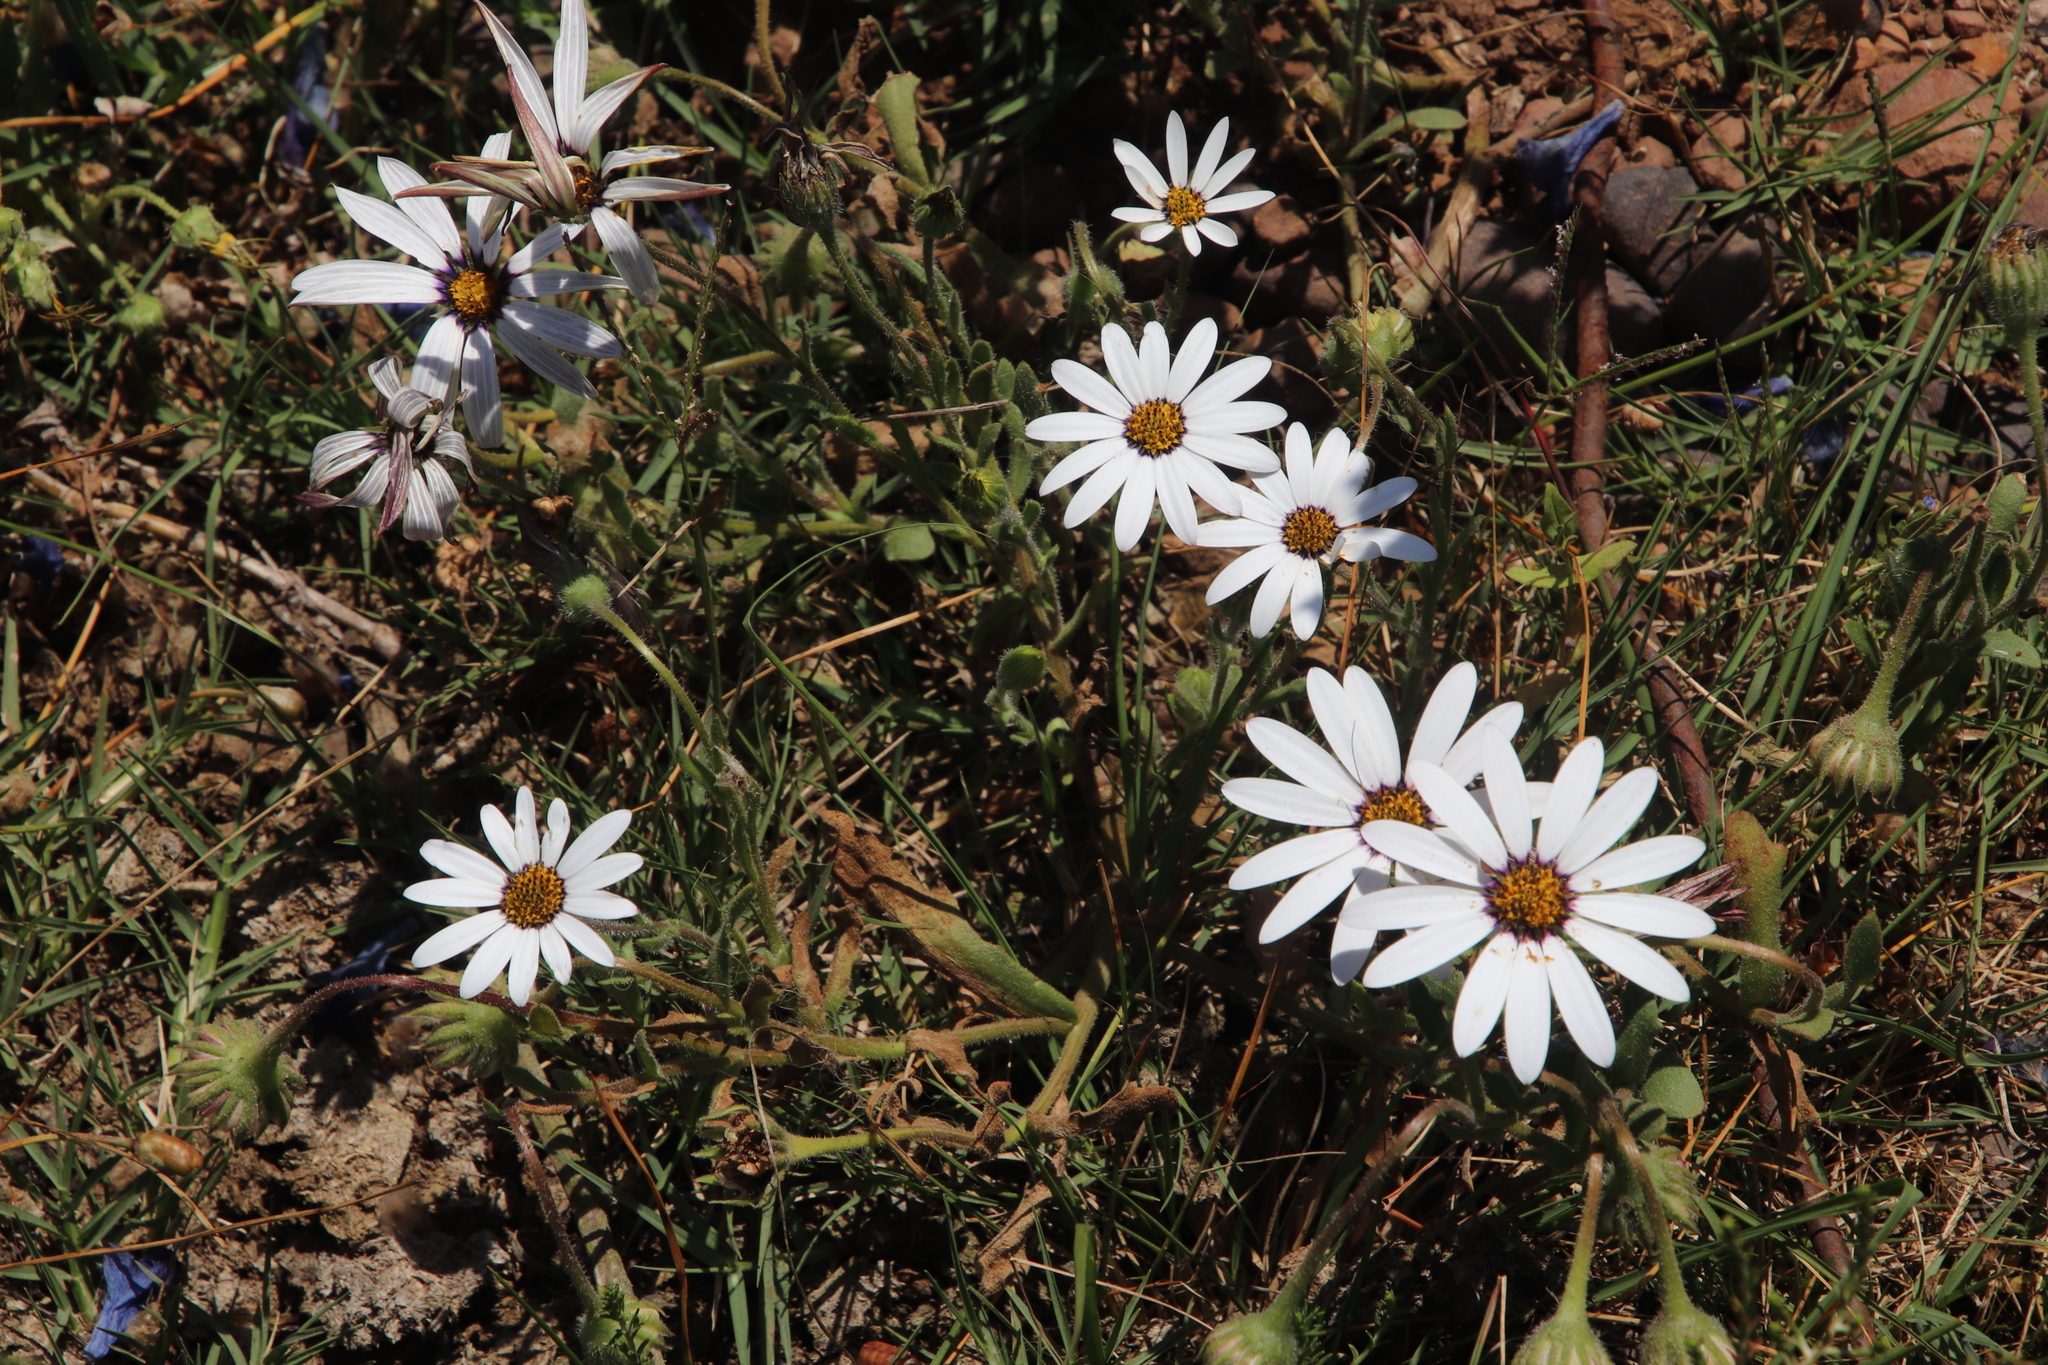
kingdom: Plantae
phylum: Tracheophyta
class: Magnoliopsida
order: Asterales
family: Asteraceae
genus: Dimorphotheca
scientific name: Dimorphotheca pluvialis
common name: Weather prophet
